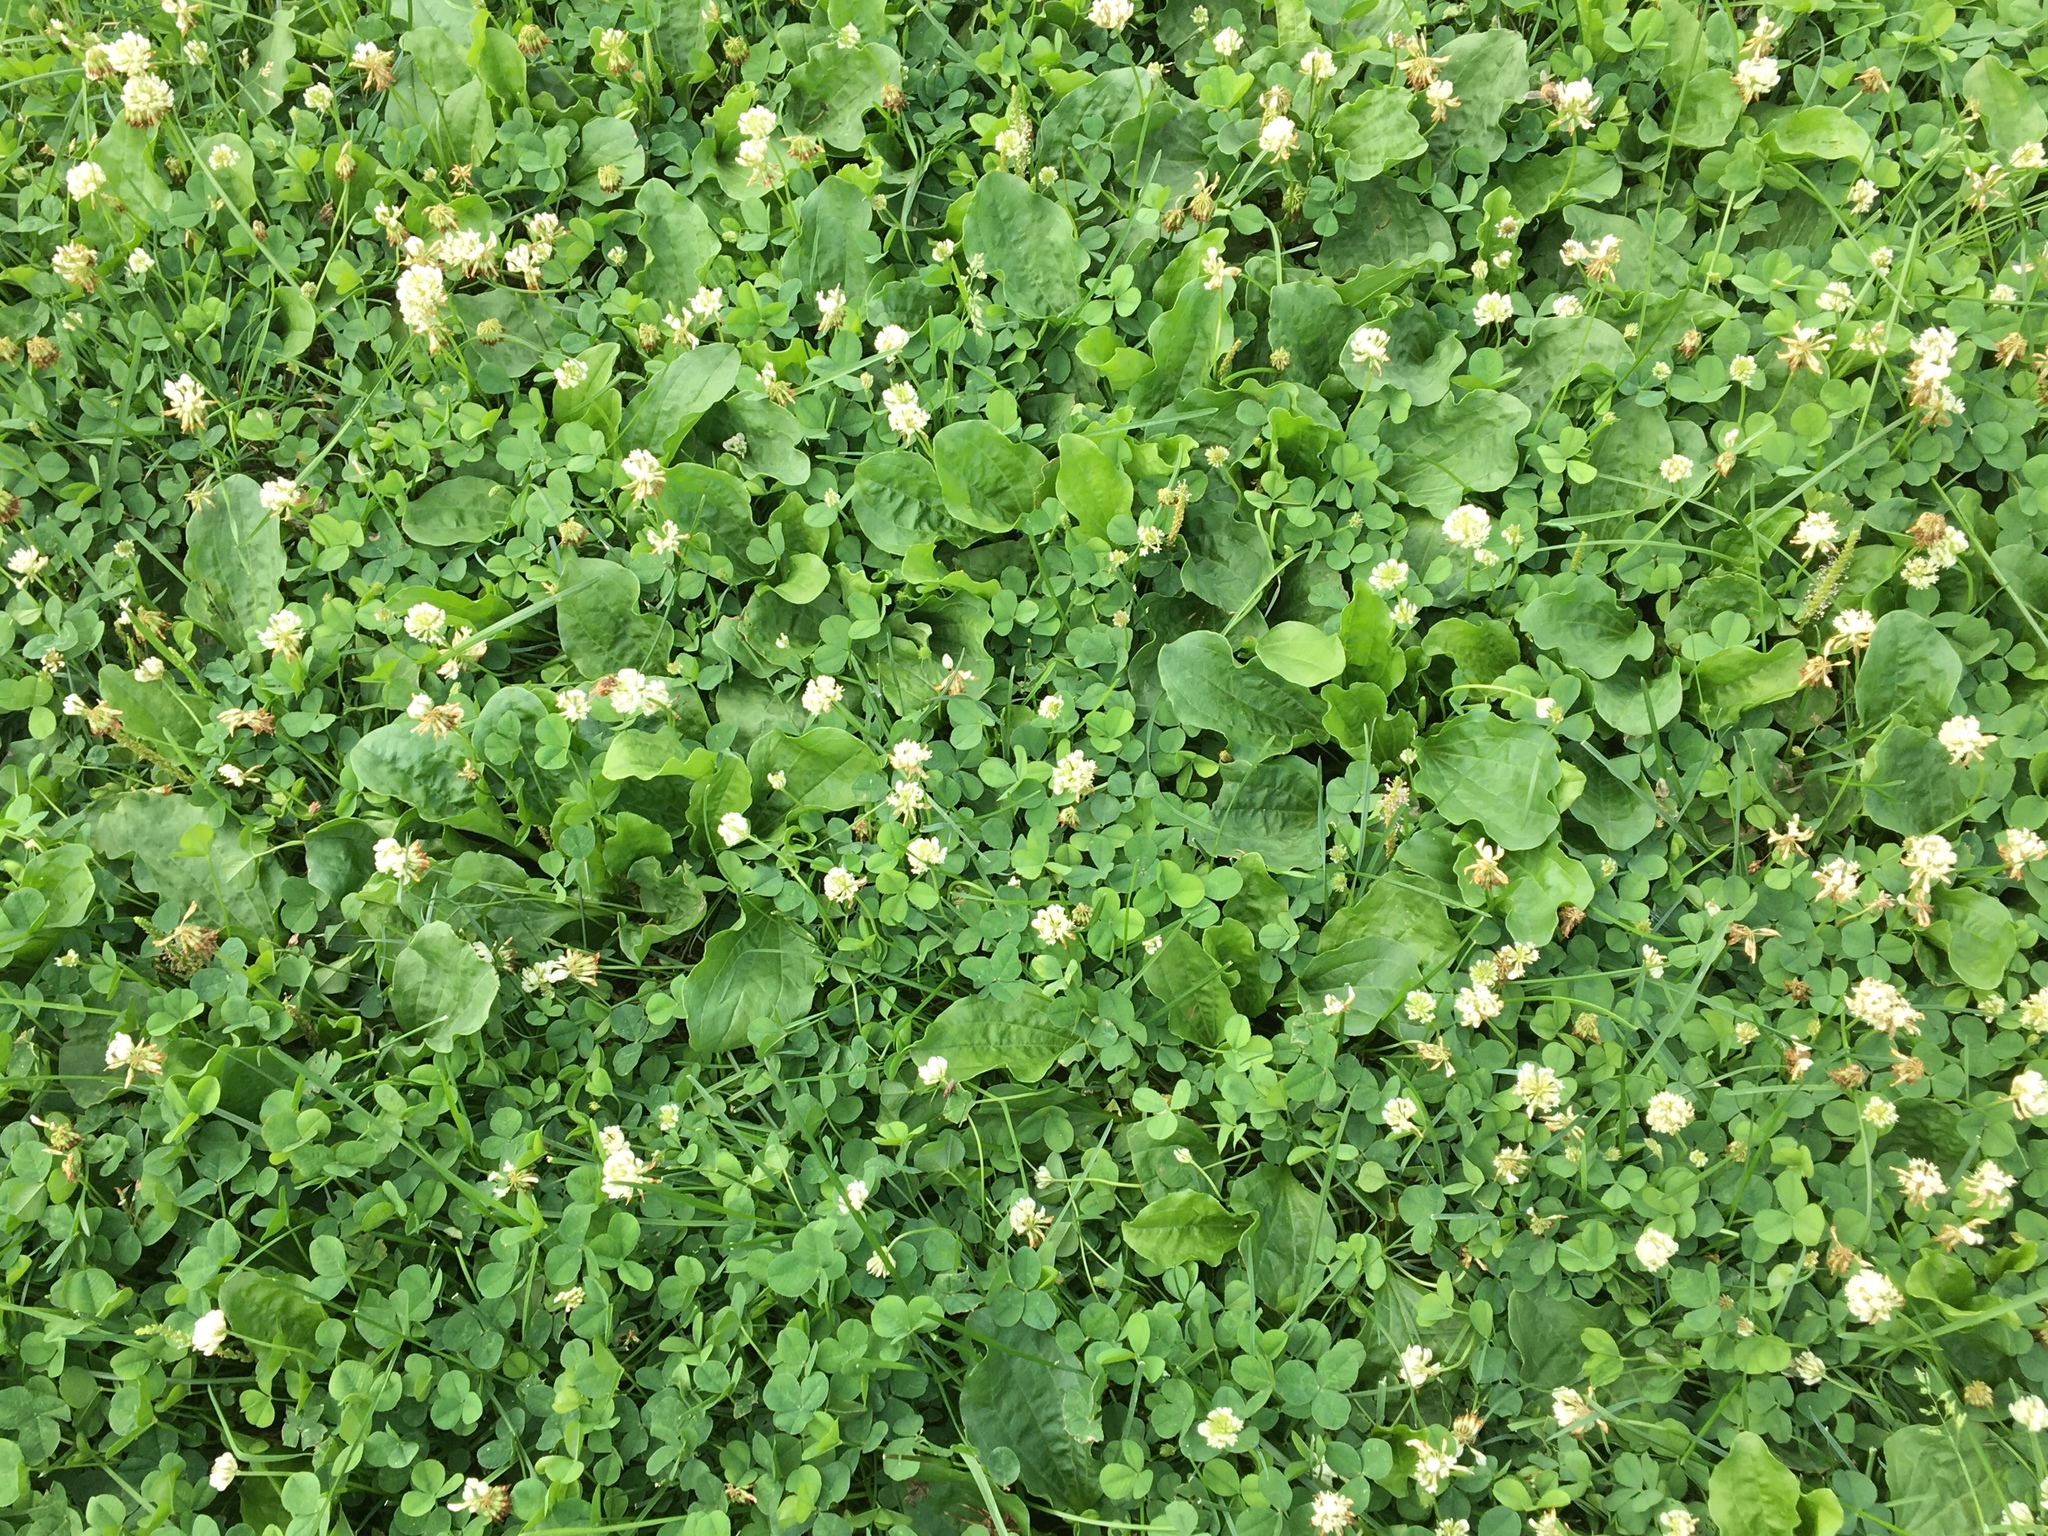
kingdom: Plantae
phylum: Tracheophyta
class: Magnoliopsida
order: Fabales
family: Fabaceae
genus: Trifolium
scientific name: Trifolium repens
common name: White clover
